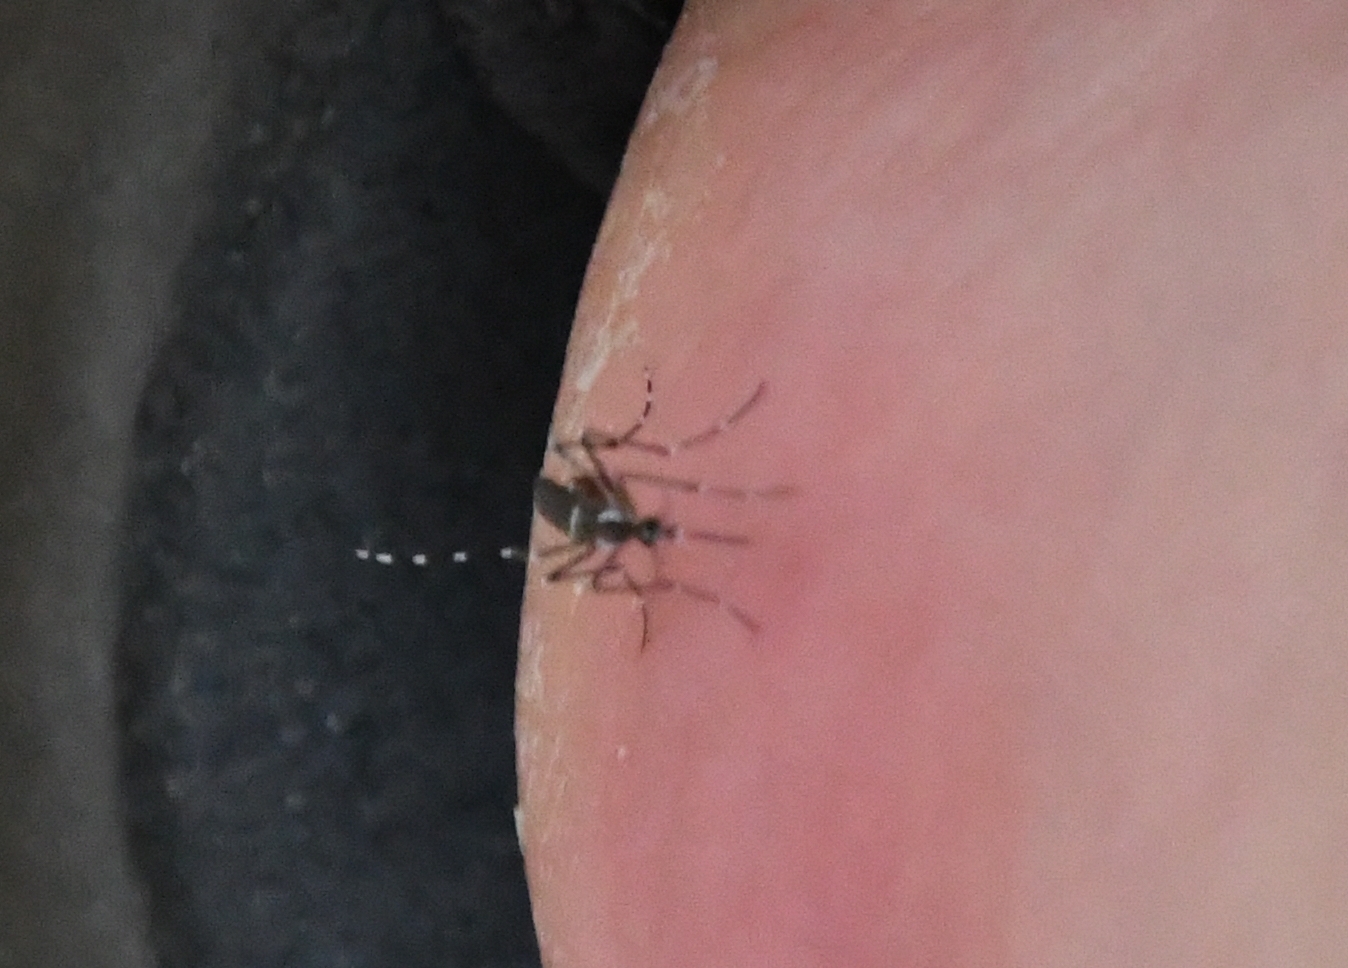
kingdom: Animalia
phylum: Arthropoda
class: Insecta
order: Diptera
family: Culicidae
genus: Aedes
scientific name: Aedes aegypti
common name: Yellow fever mosquito
